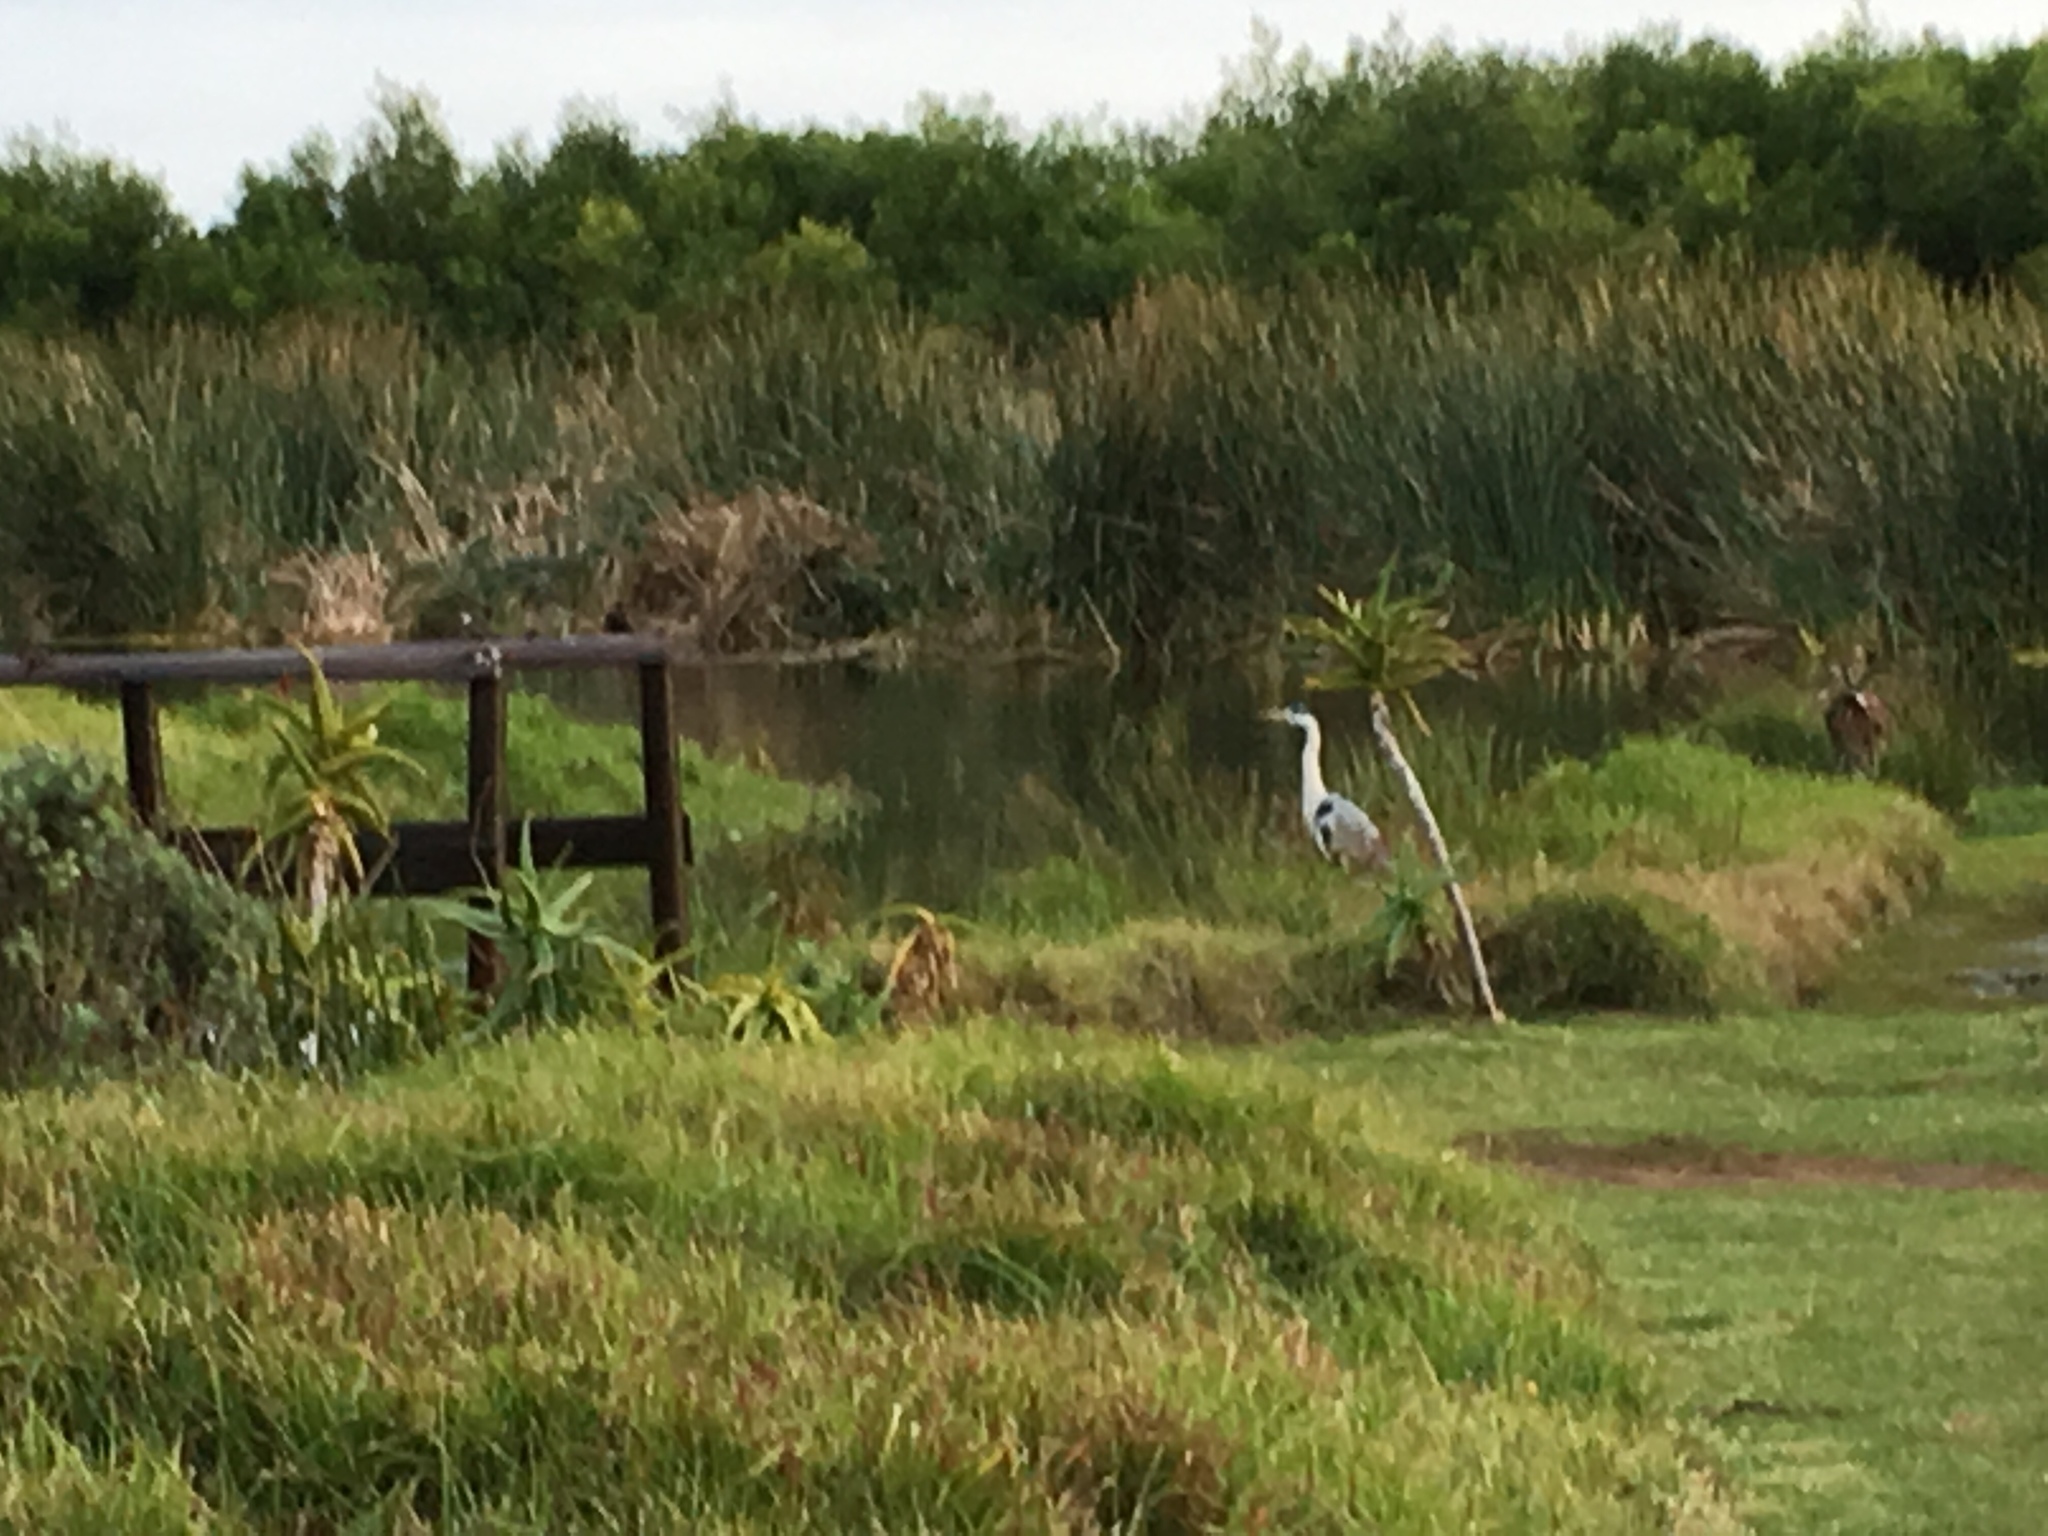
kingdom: Animalia
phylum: Chordata
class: Aves
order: Pelecaniformes
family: Ardeidae
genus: Ardea
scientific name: Ardea cinerea
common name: Grey heron
